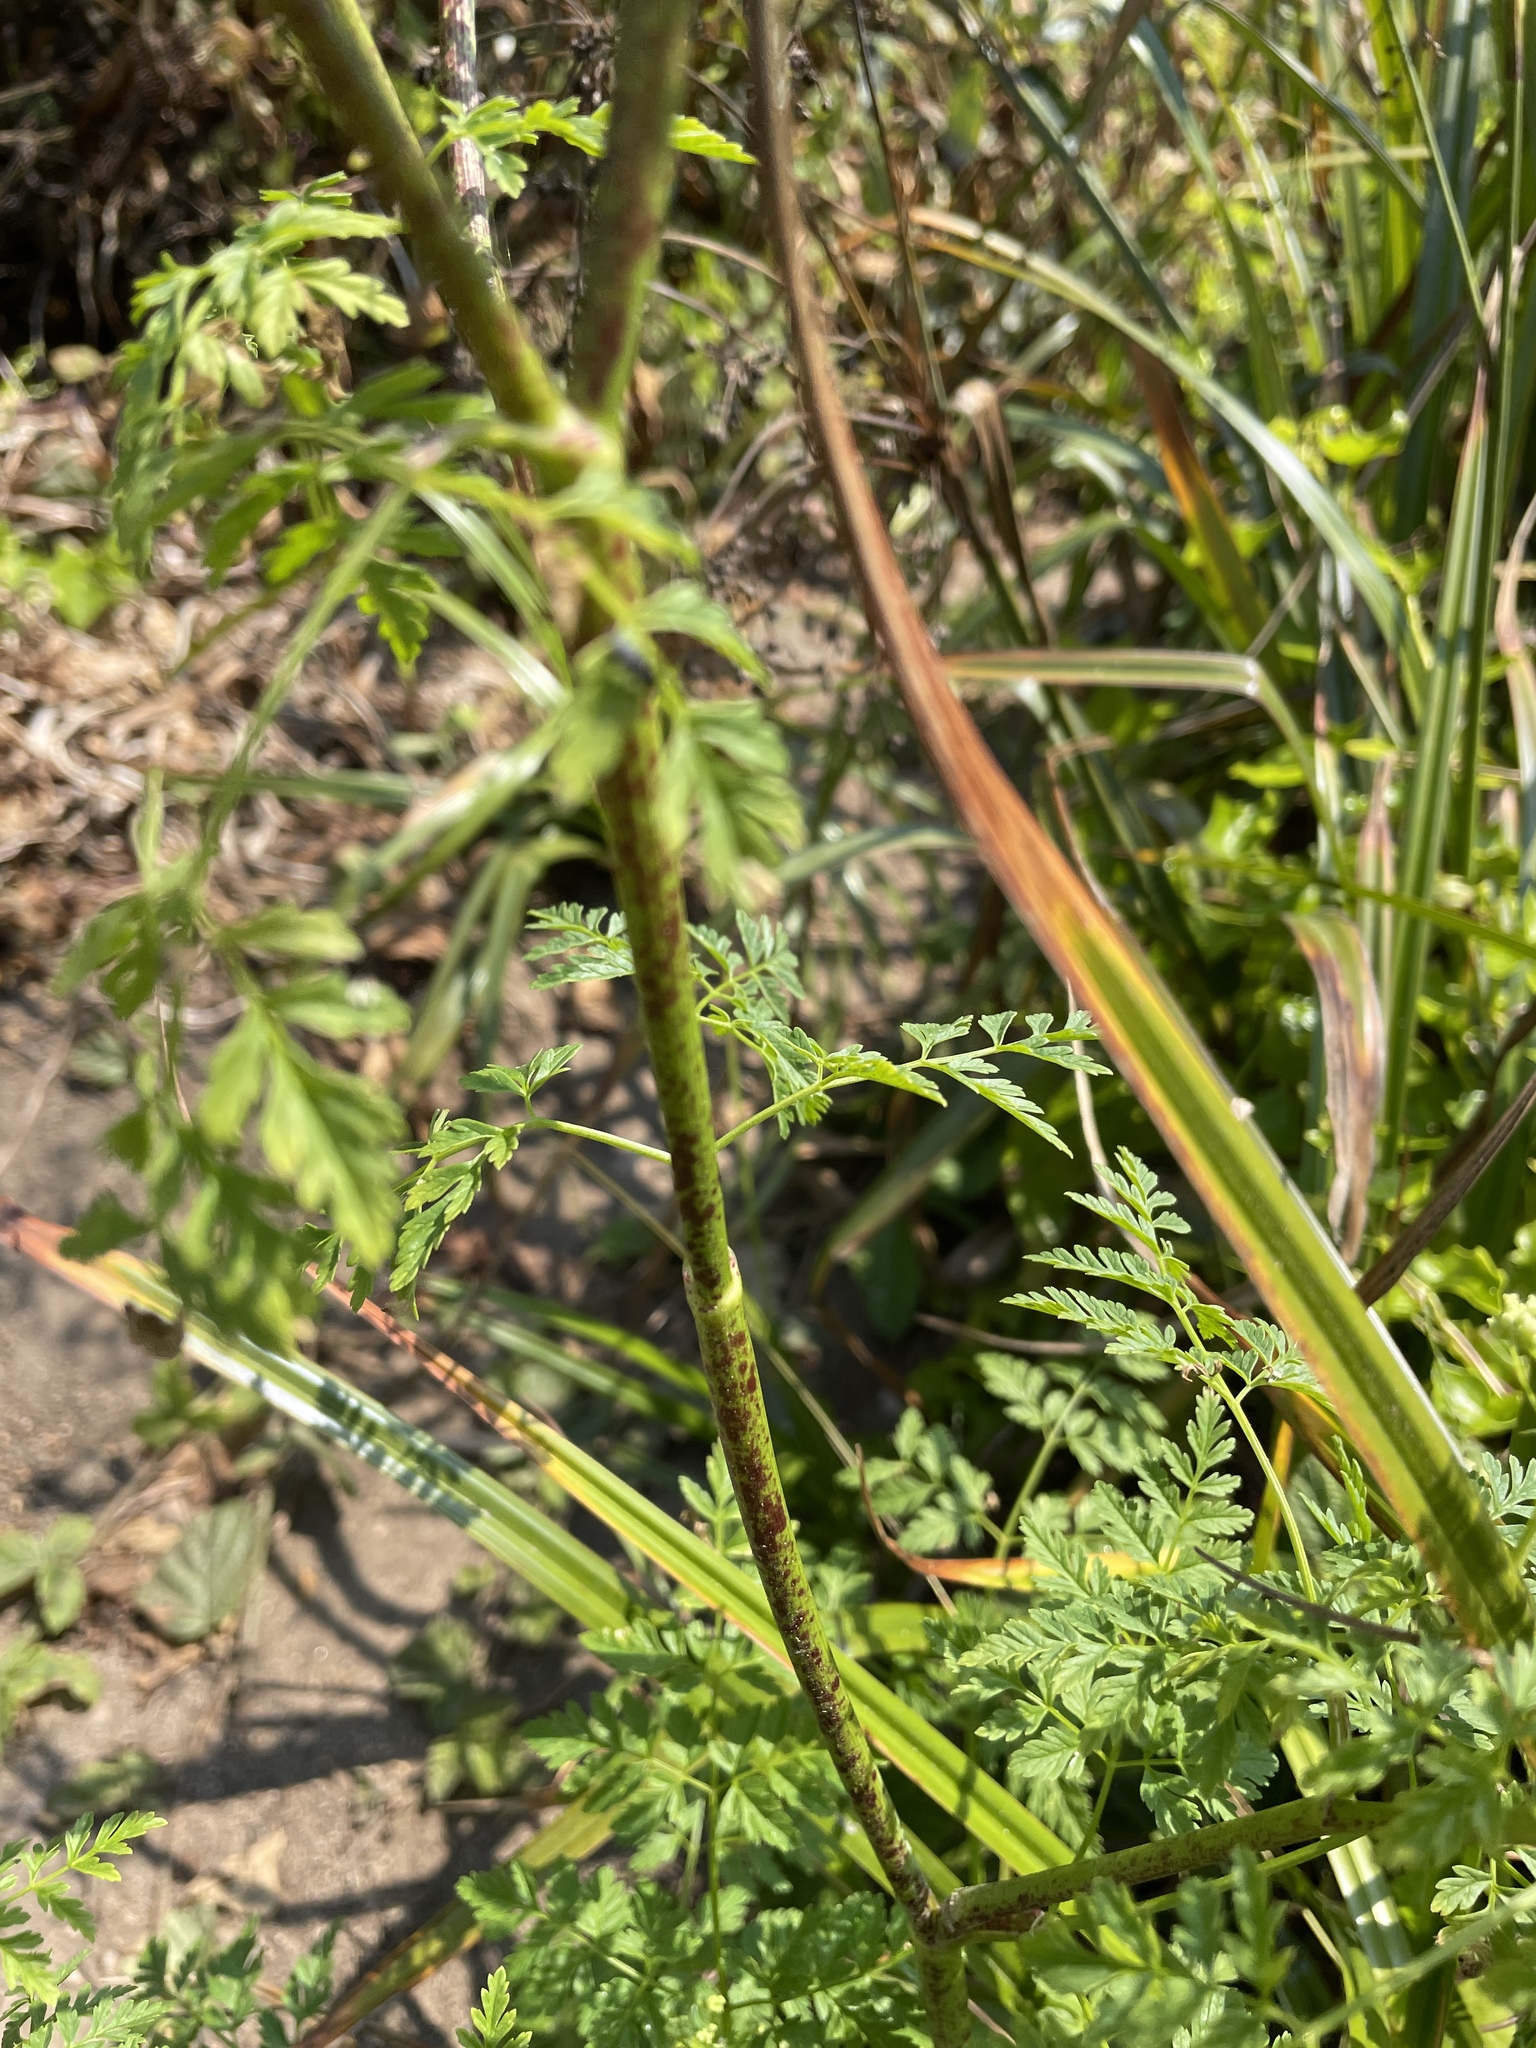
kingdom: Plantae
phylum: Tracheophyta
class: Magnoliopsida
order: Apiales
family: Apiaceae
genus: Conium
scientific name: Conium maculatum
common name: Hemlock
